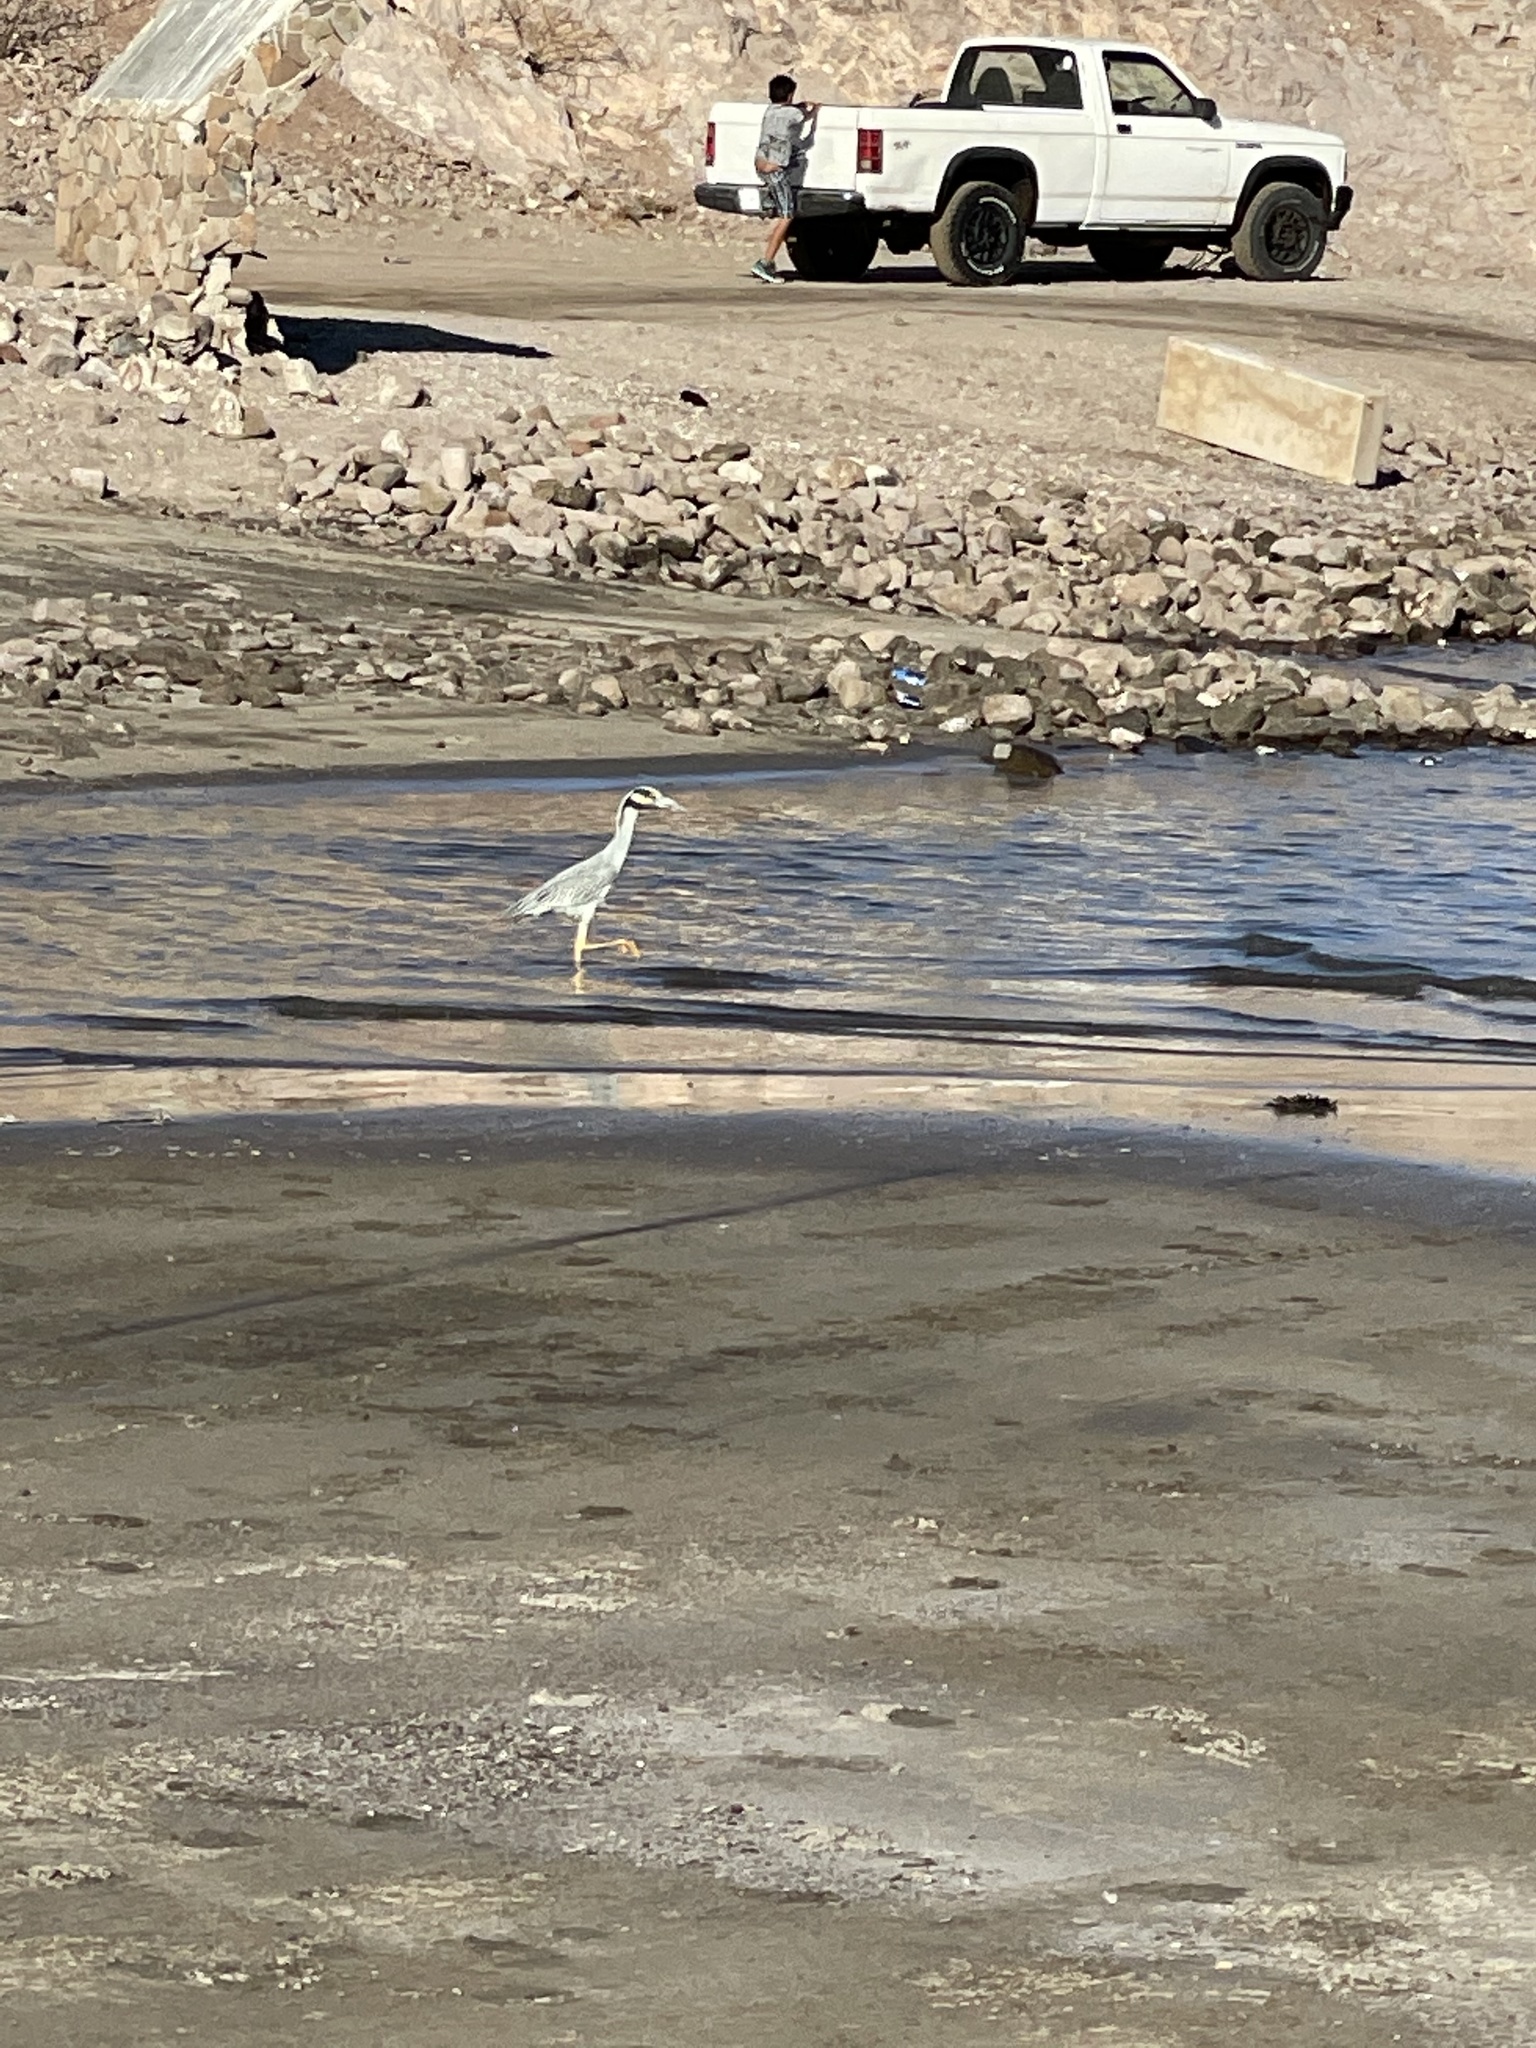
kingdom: Animalia
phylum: Chordata
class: Aves
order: Pelecaniformes
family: Ardeidae
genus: Nyctanassa
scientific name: Nyctanassa violacea
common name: Yellow-crowned night heron
